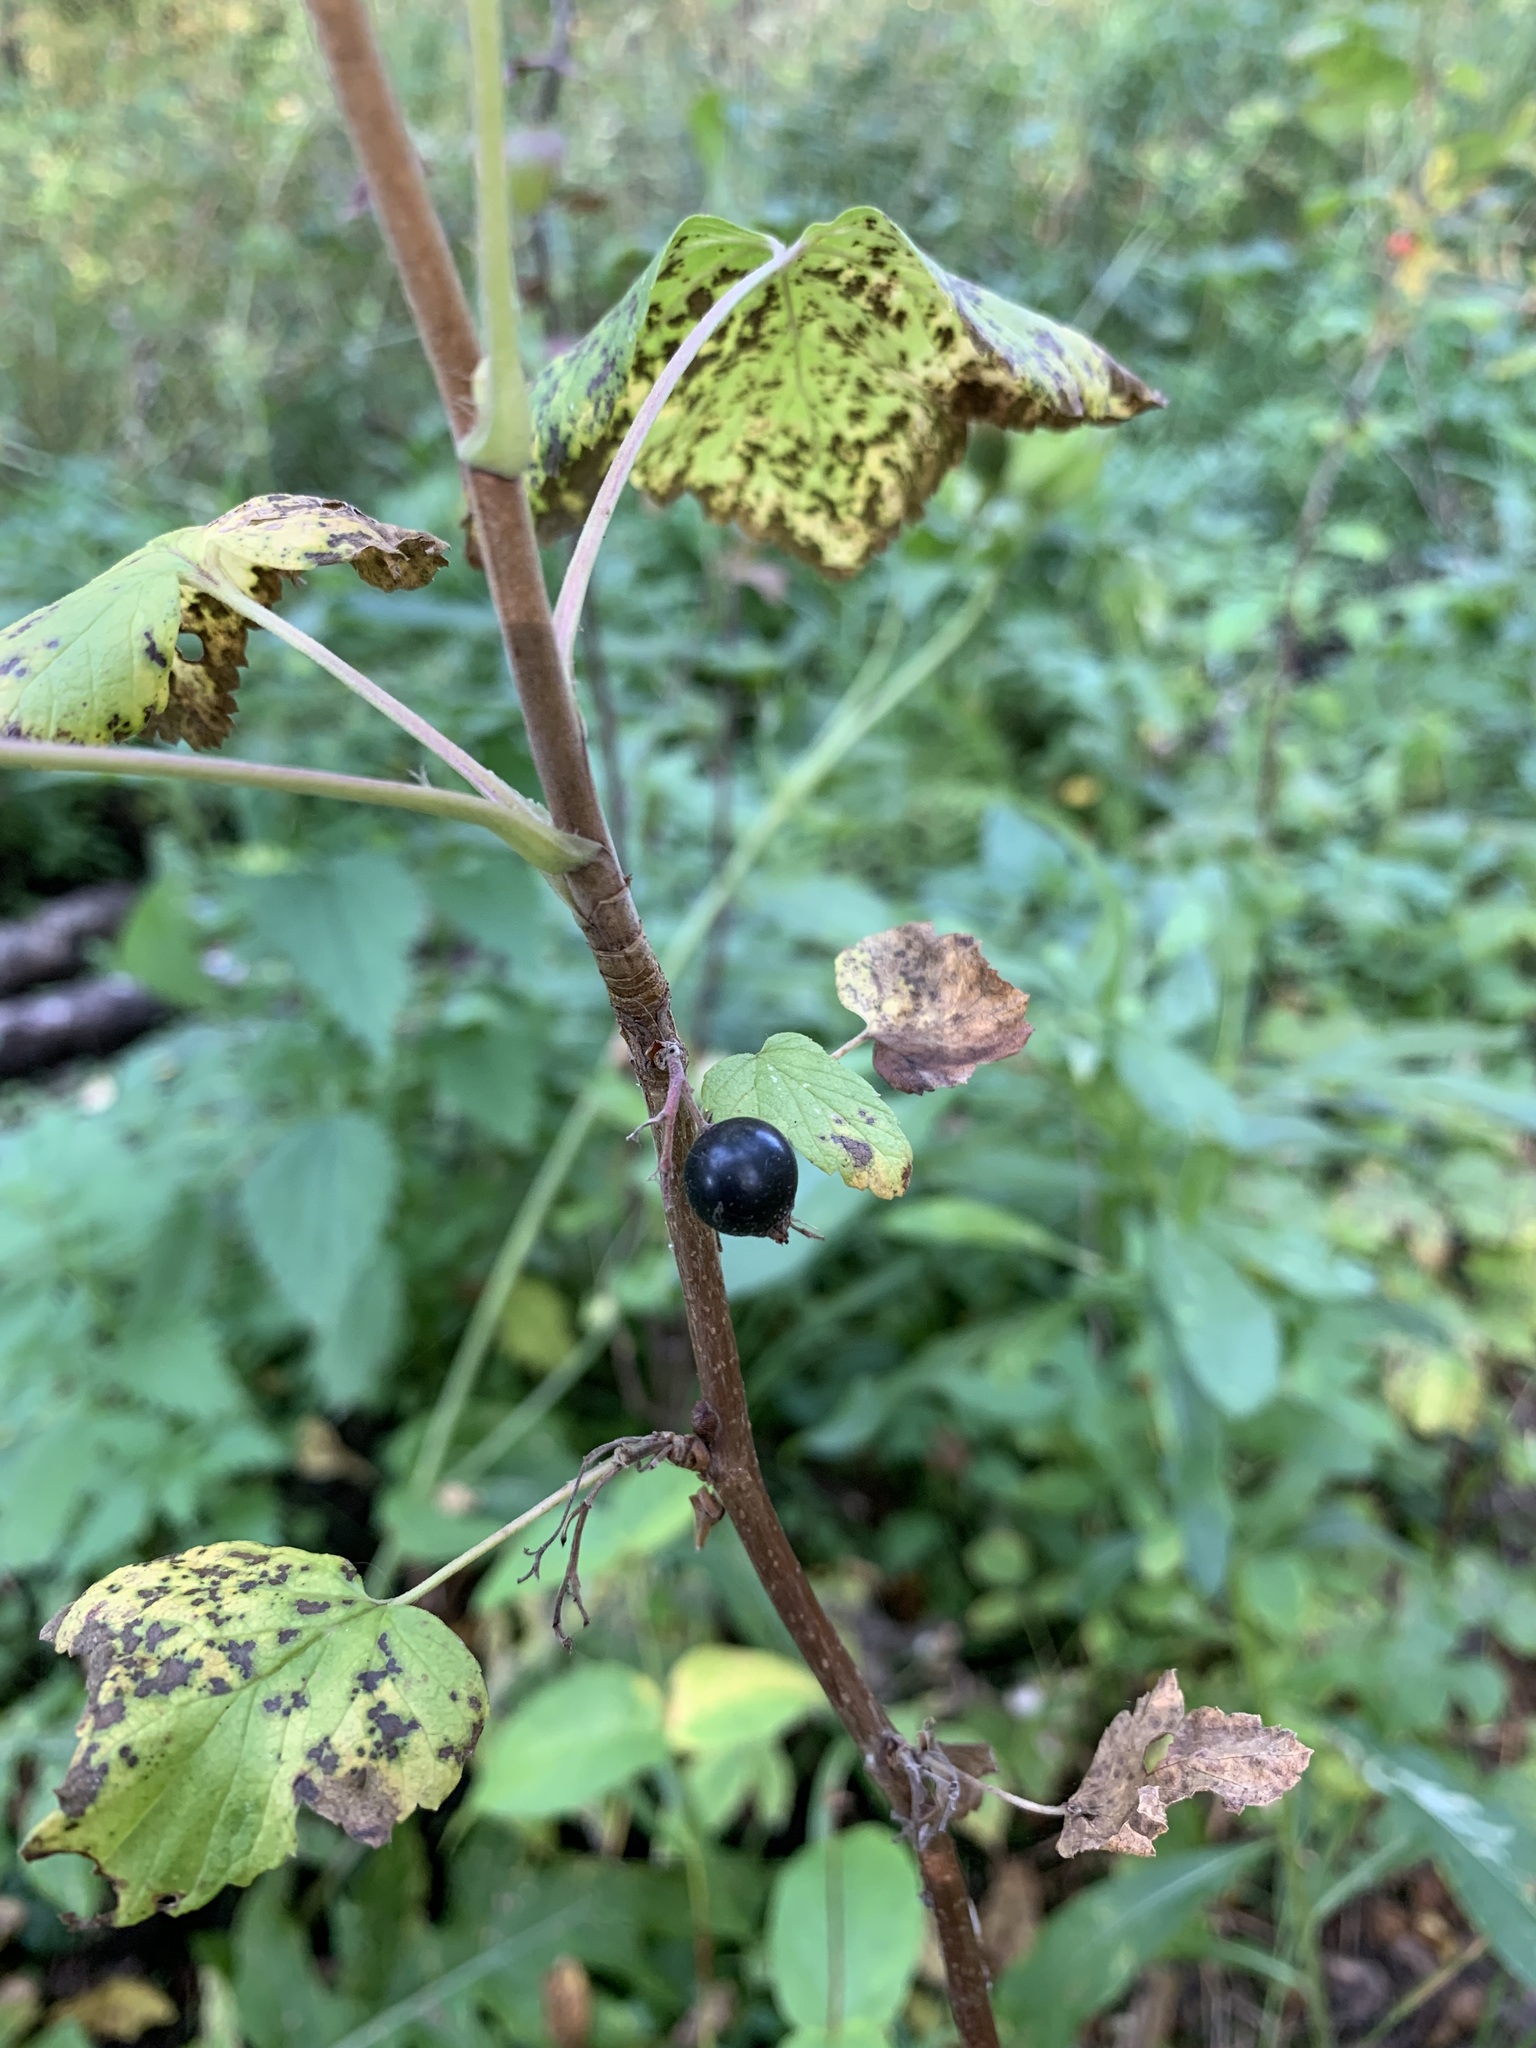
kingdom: Plantae
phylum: Tracheophyta
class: Magnoliopsida
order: Saxifragales
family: Grossulariaceae
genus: Ribes
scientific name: Ribes nigrum
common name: Black currant
